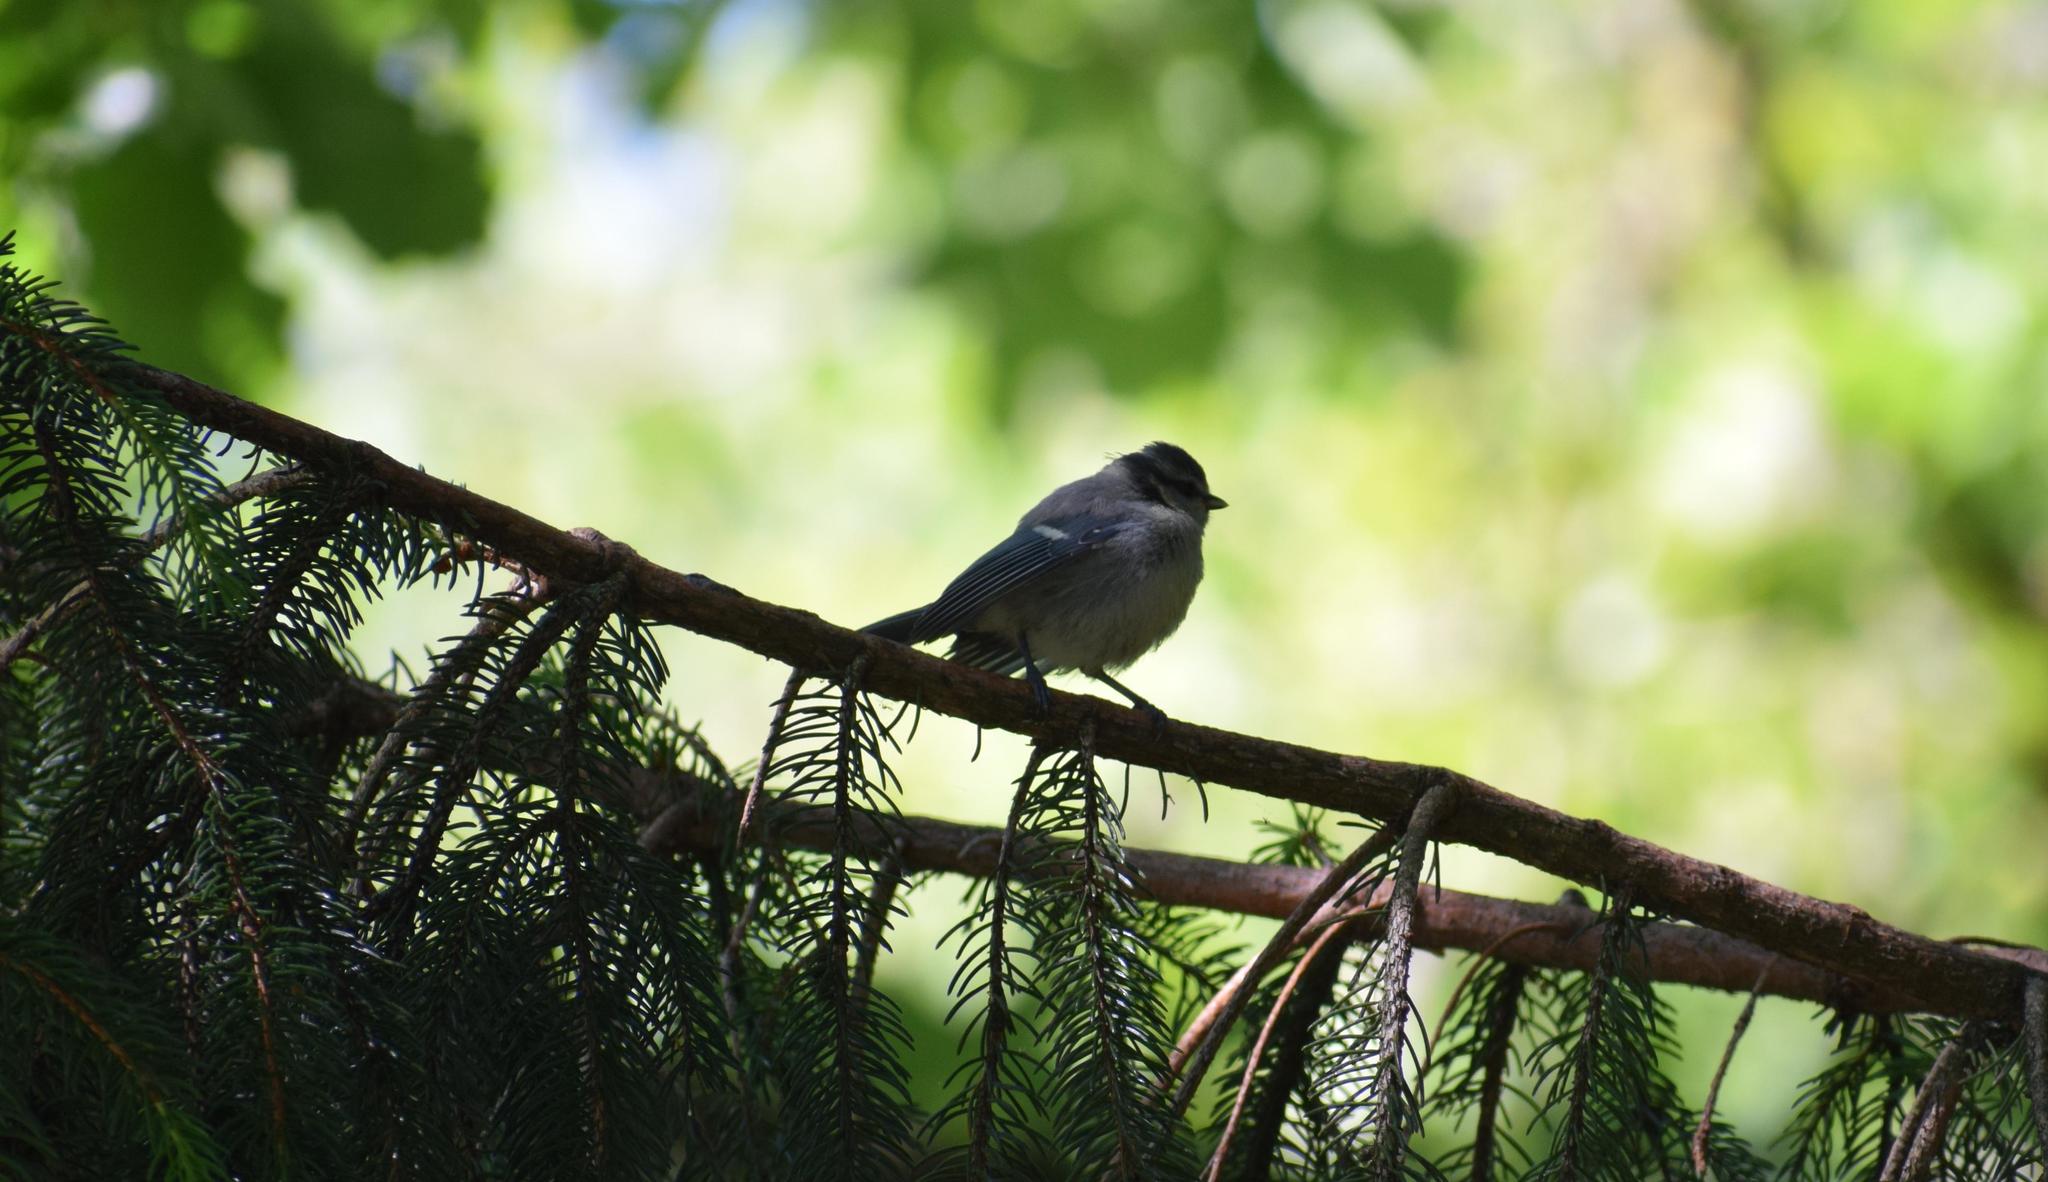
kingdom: Animalia
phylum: Chordata
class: Aves
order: Passeriformes
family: Paridae
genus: Cyanistes
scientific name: Cyanistes caeruleus
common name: Eurasian blue tit
